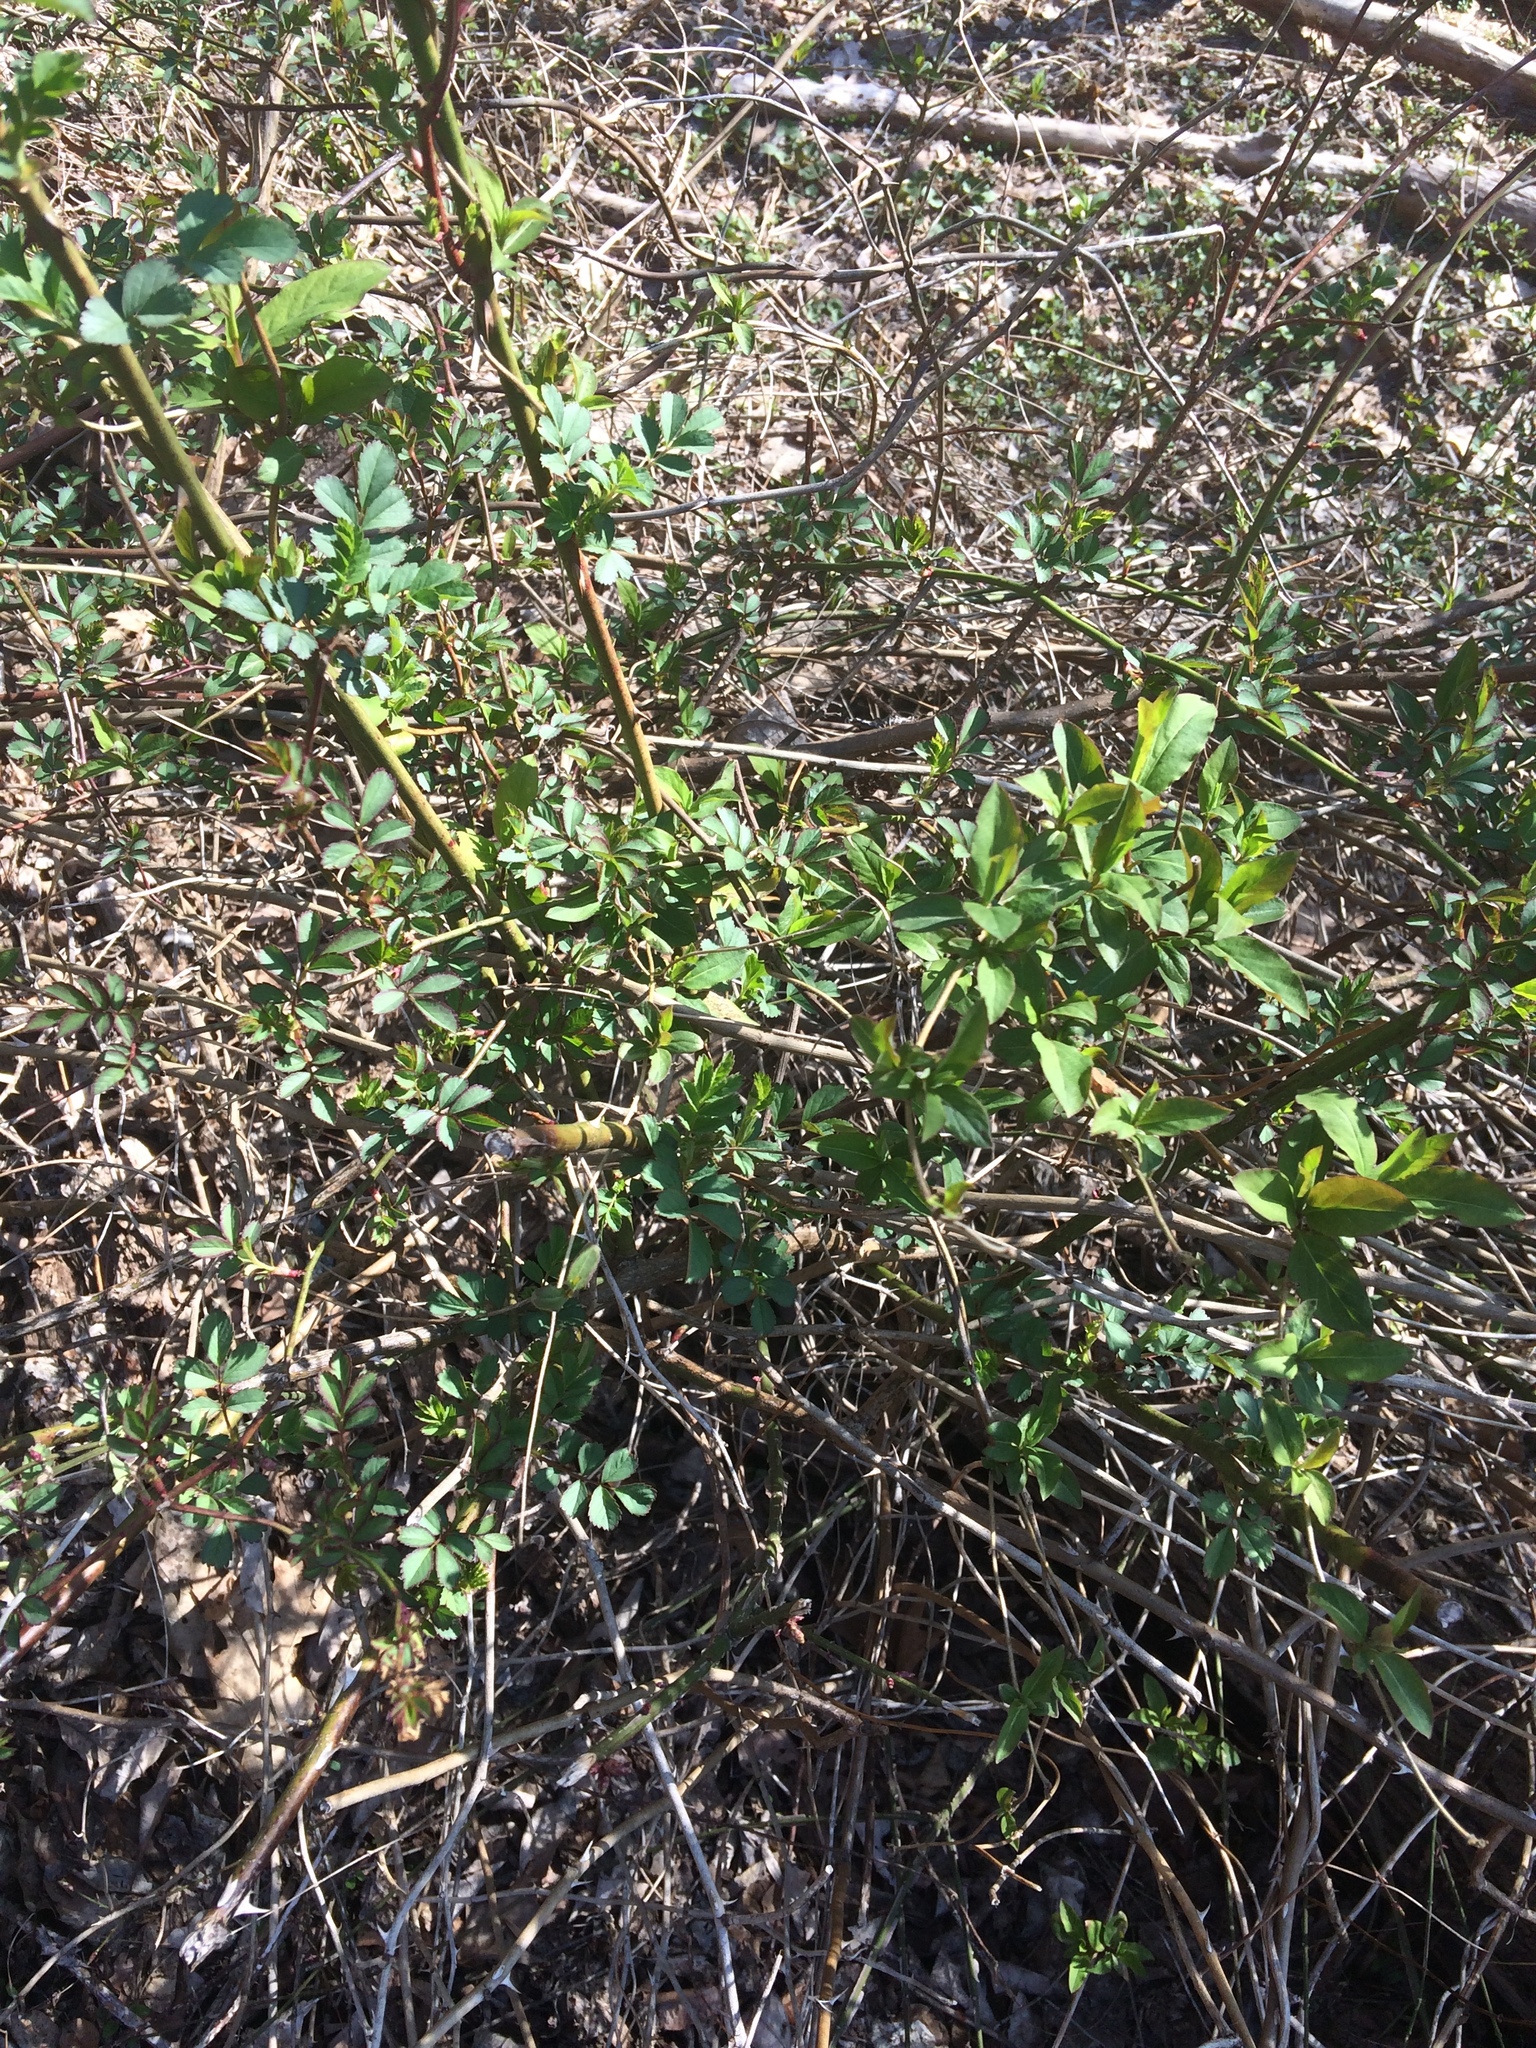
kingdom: Plantae
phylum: Tracheophyta
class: Magnoliopsida
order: Rosales
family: Rosaceae
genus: Rosa
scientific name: Rosa multiflora
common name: Multiflora rose
